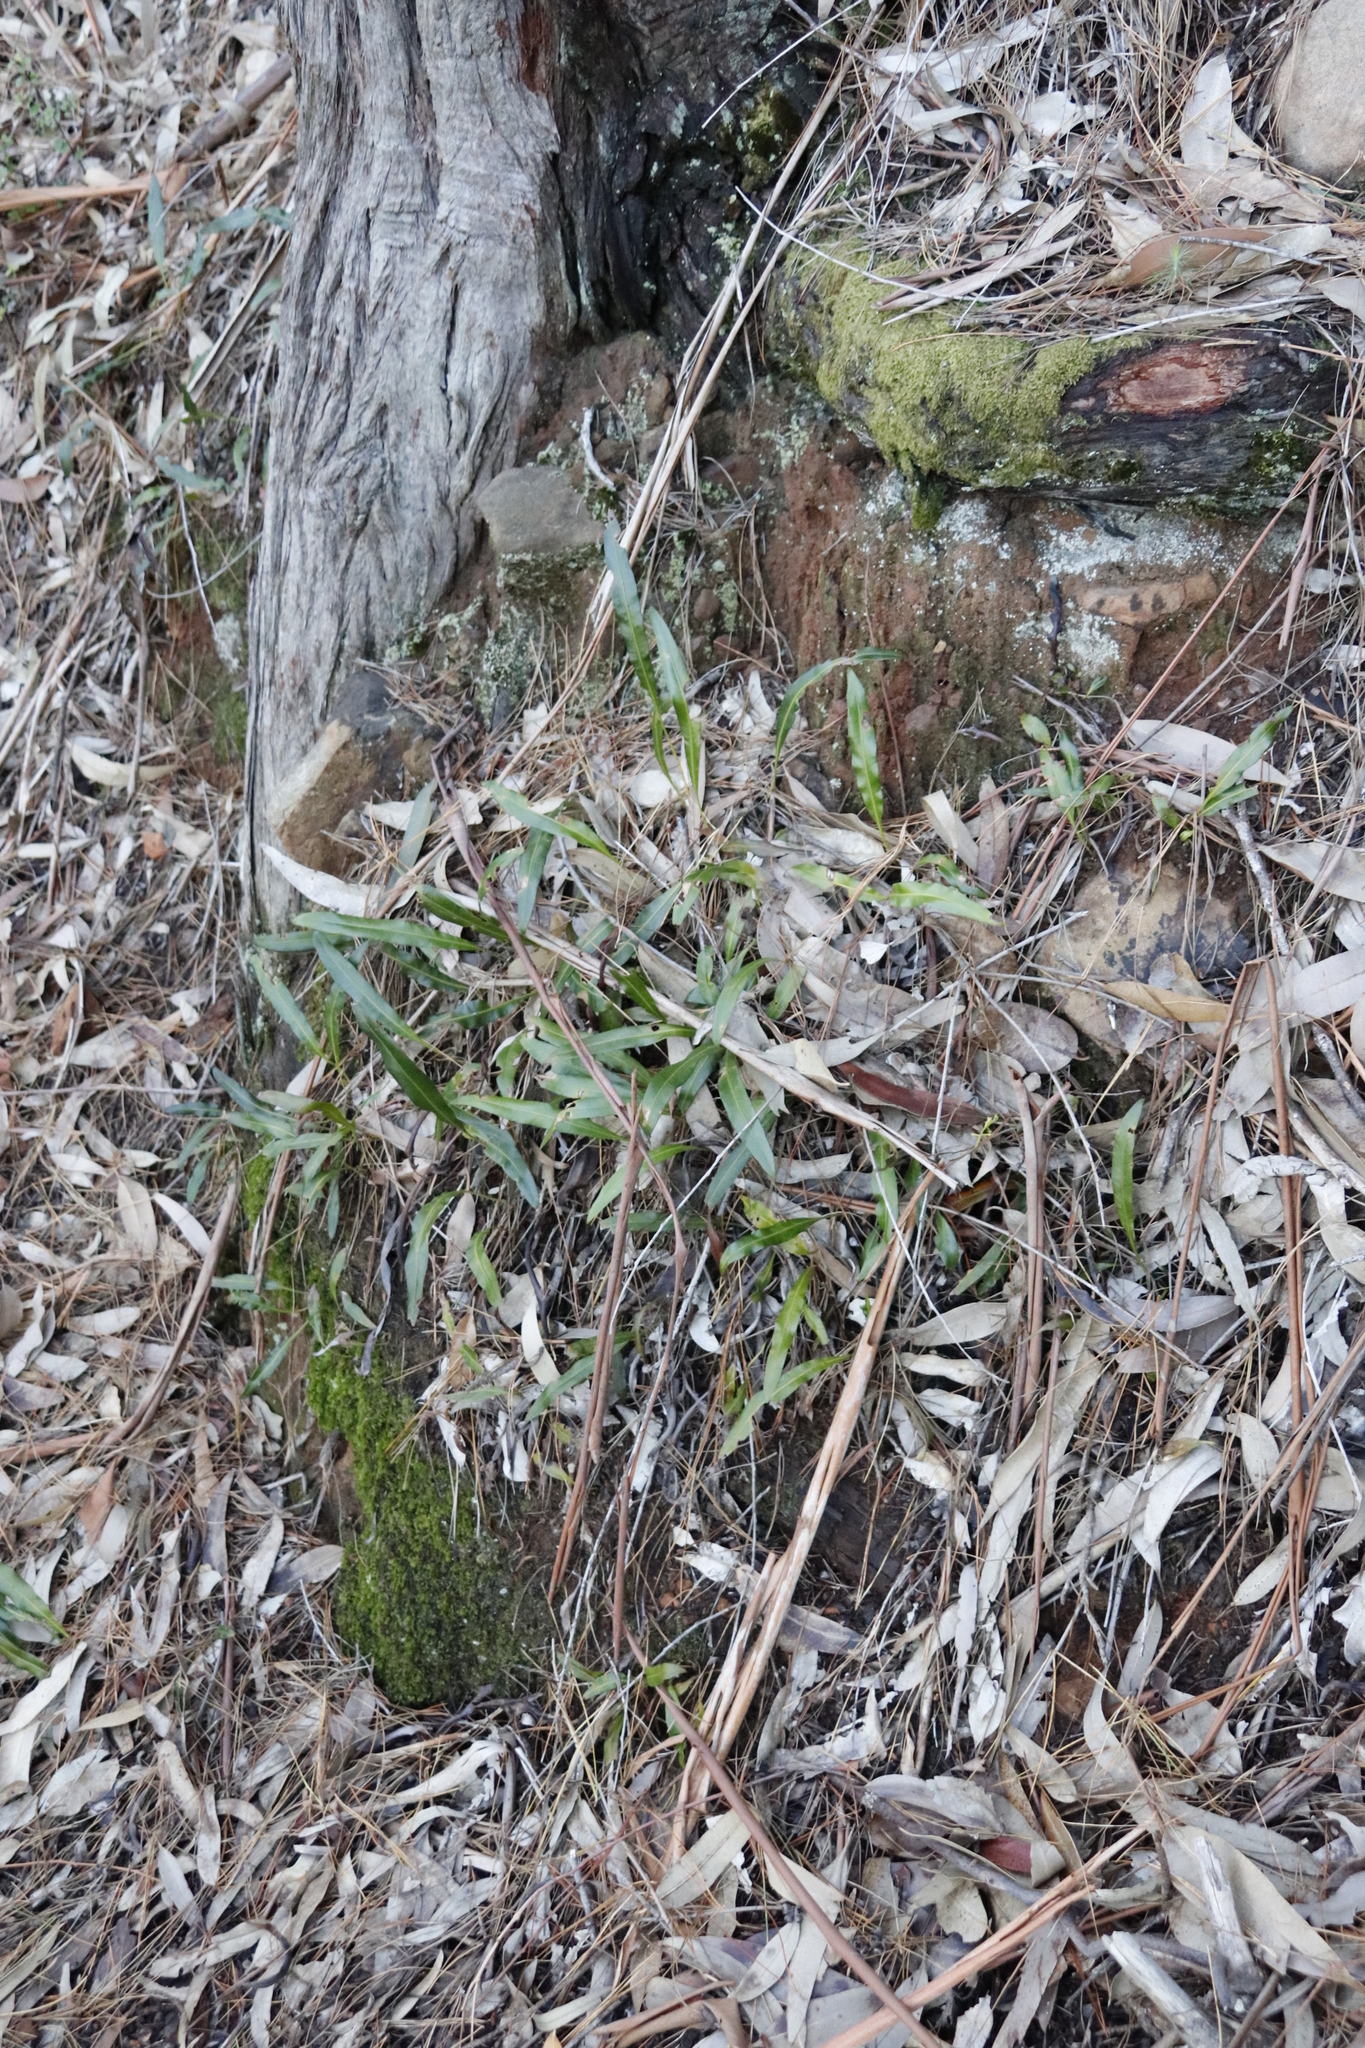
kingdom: Plantae
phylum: Tracheophyta
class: Polypodiopsida
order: Polypodiales
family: Dryopteridaceae
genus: Elaphoglossum
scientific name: Elaphoglossum acrostichoides
